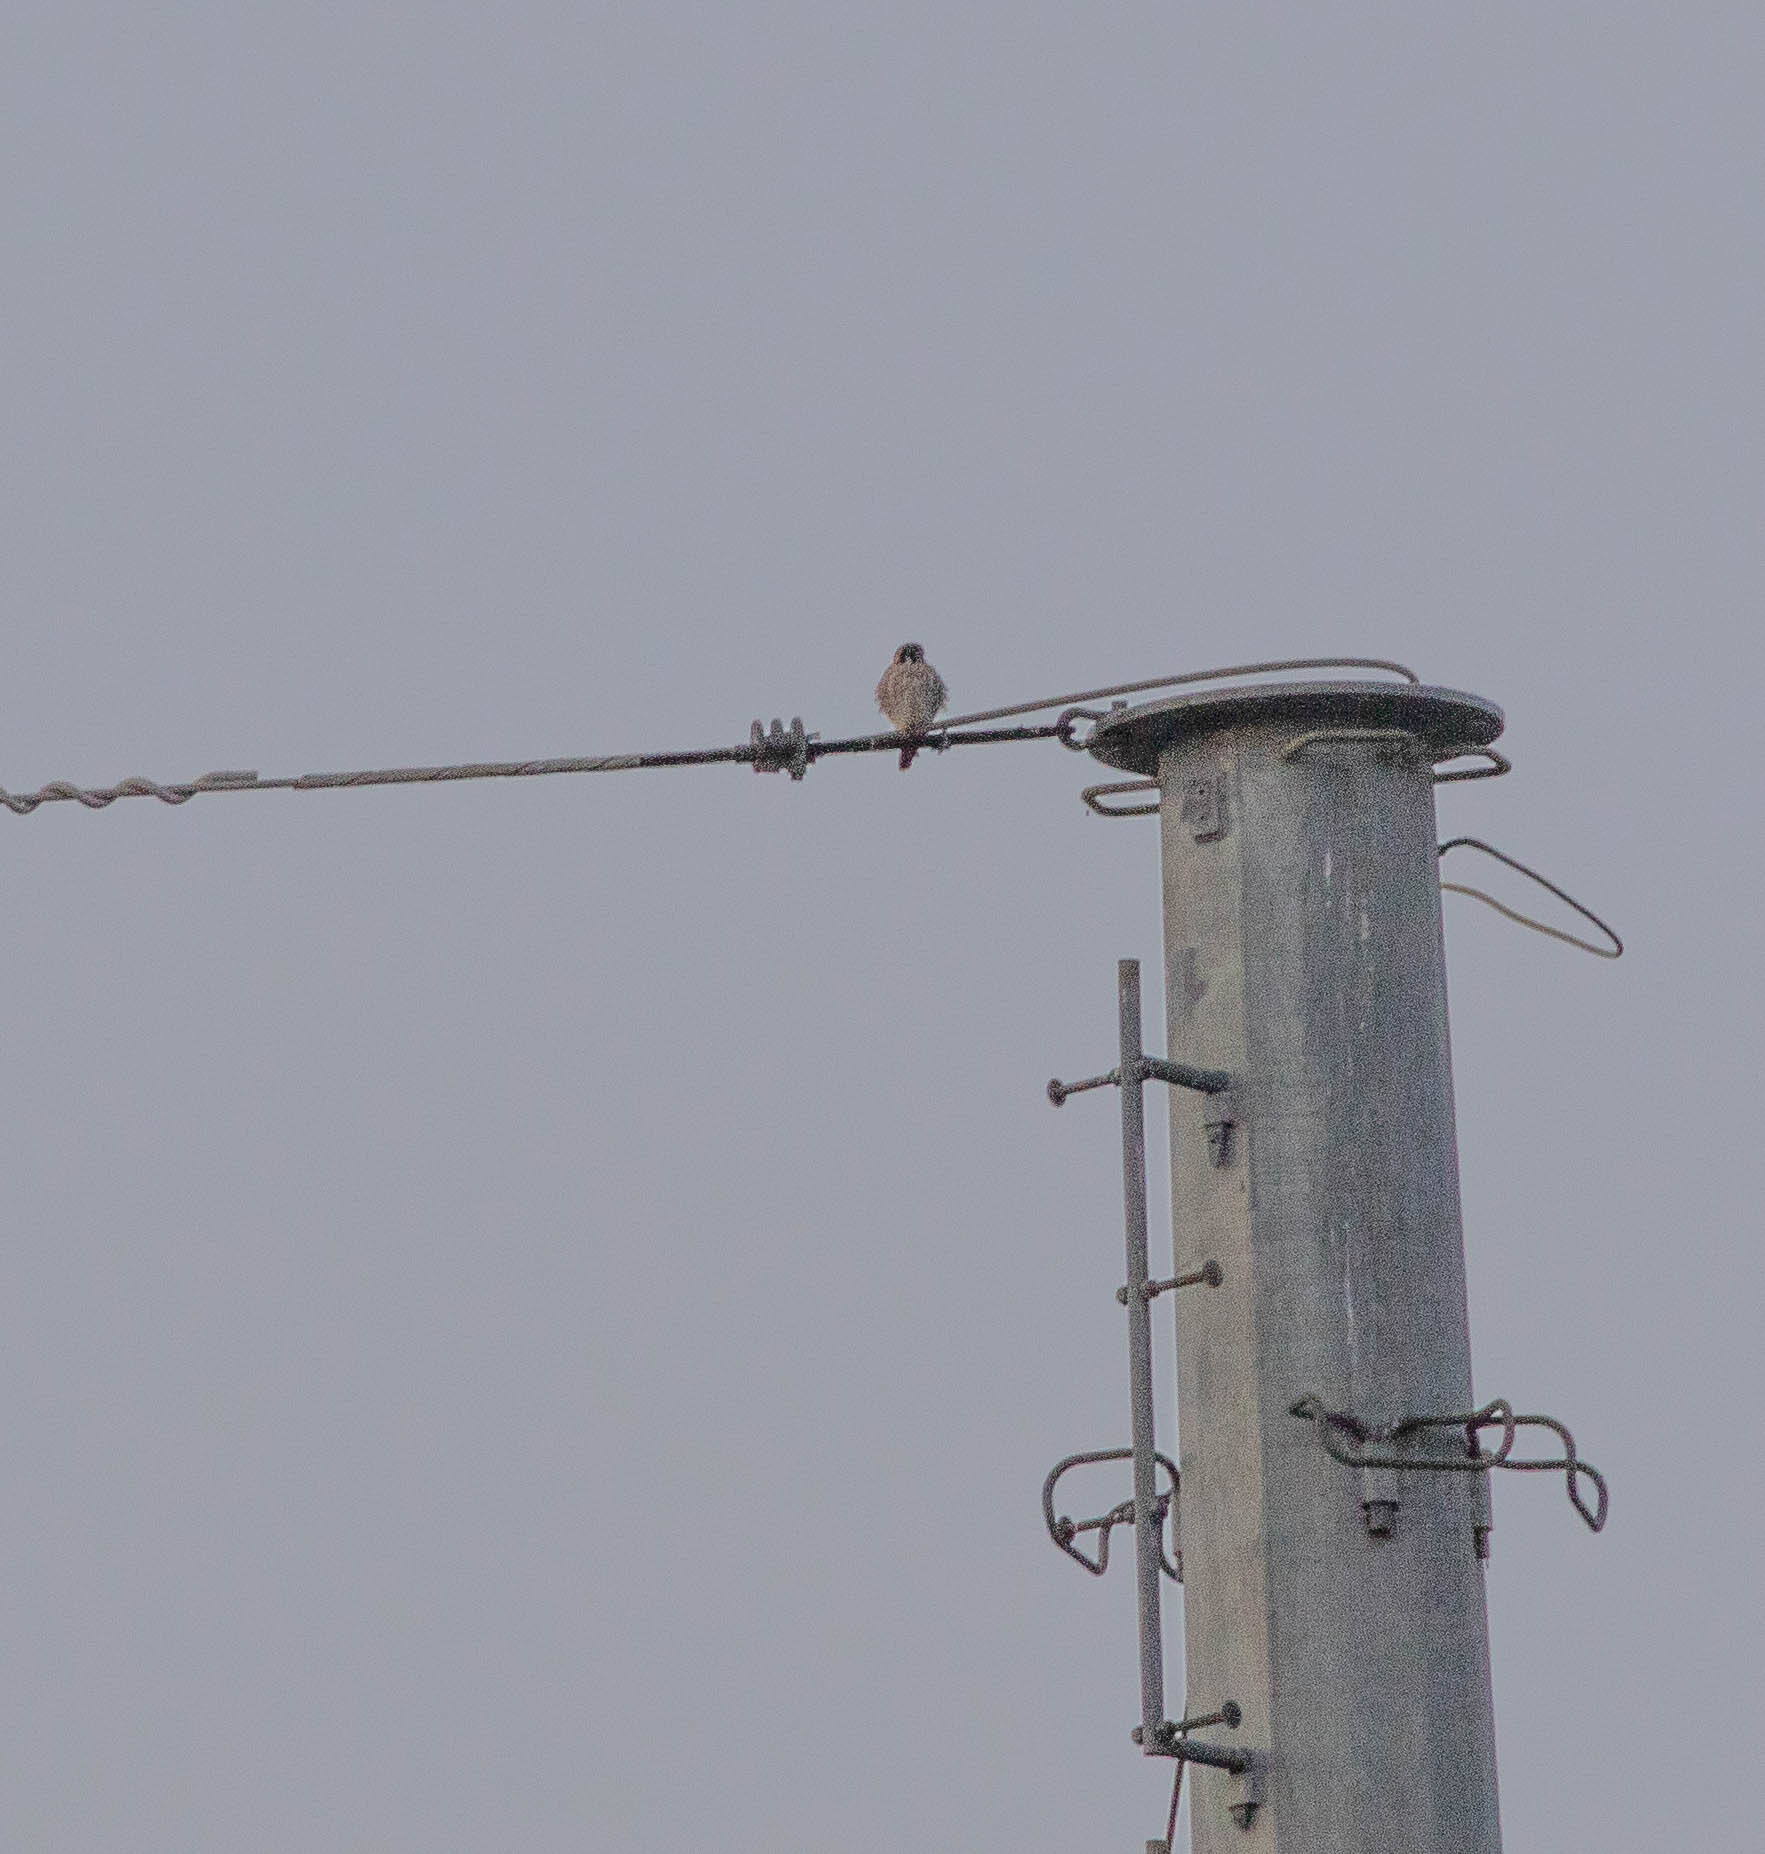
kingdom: Animalia
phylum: Chordata
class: Aves
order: Falconiformes
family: Falconidae
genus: Falco
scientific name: Falco sparverius
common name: American kestrel
